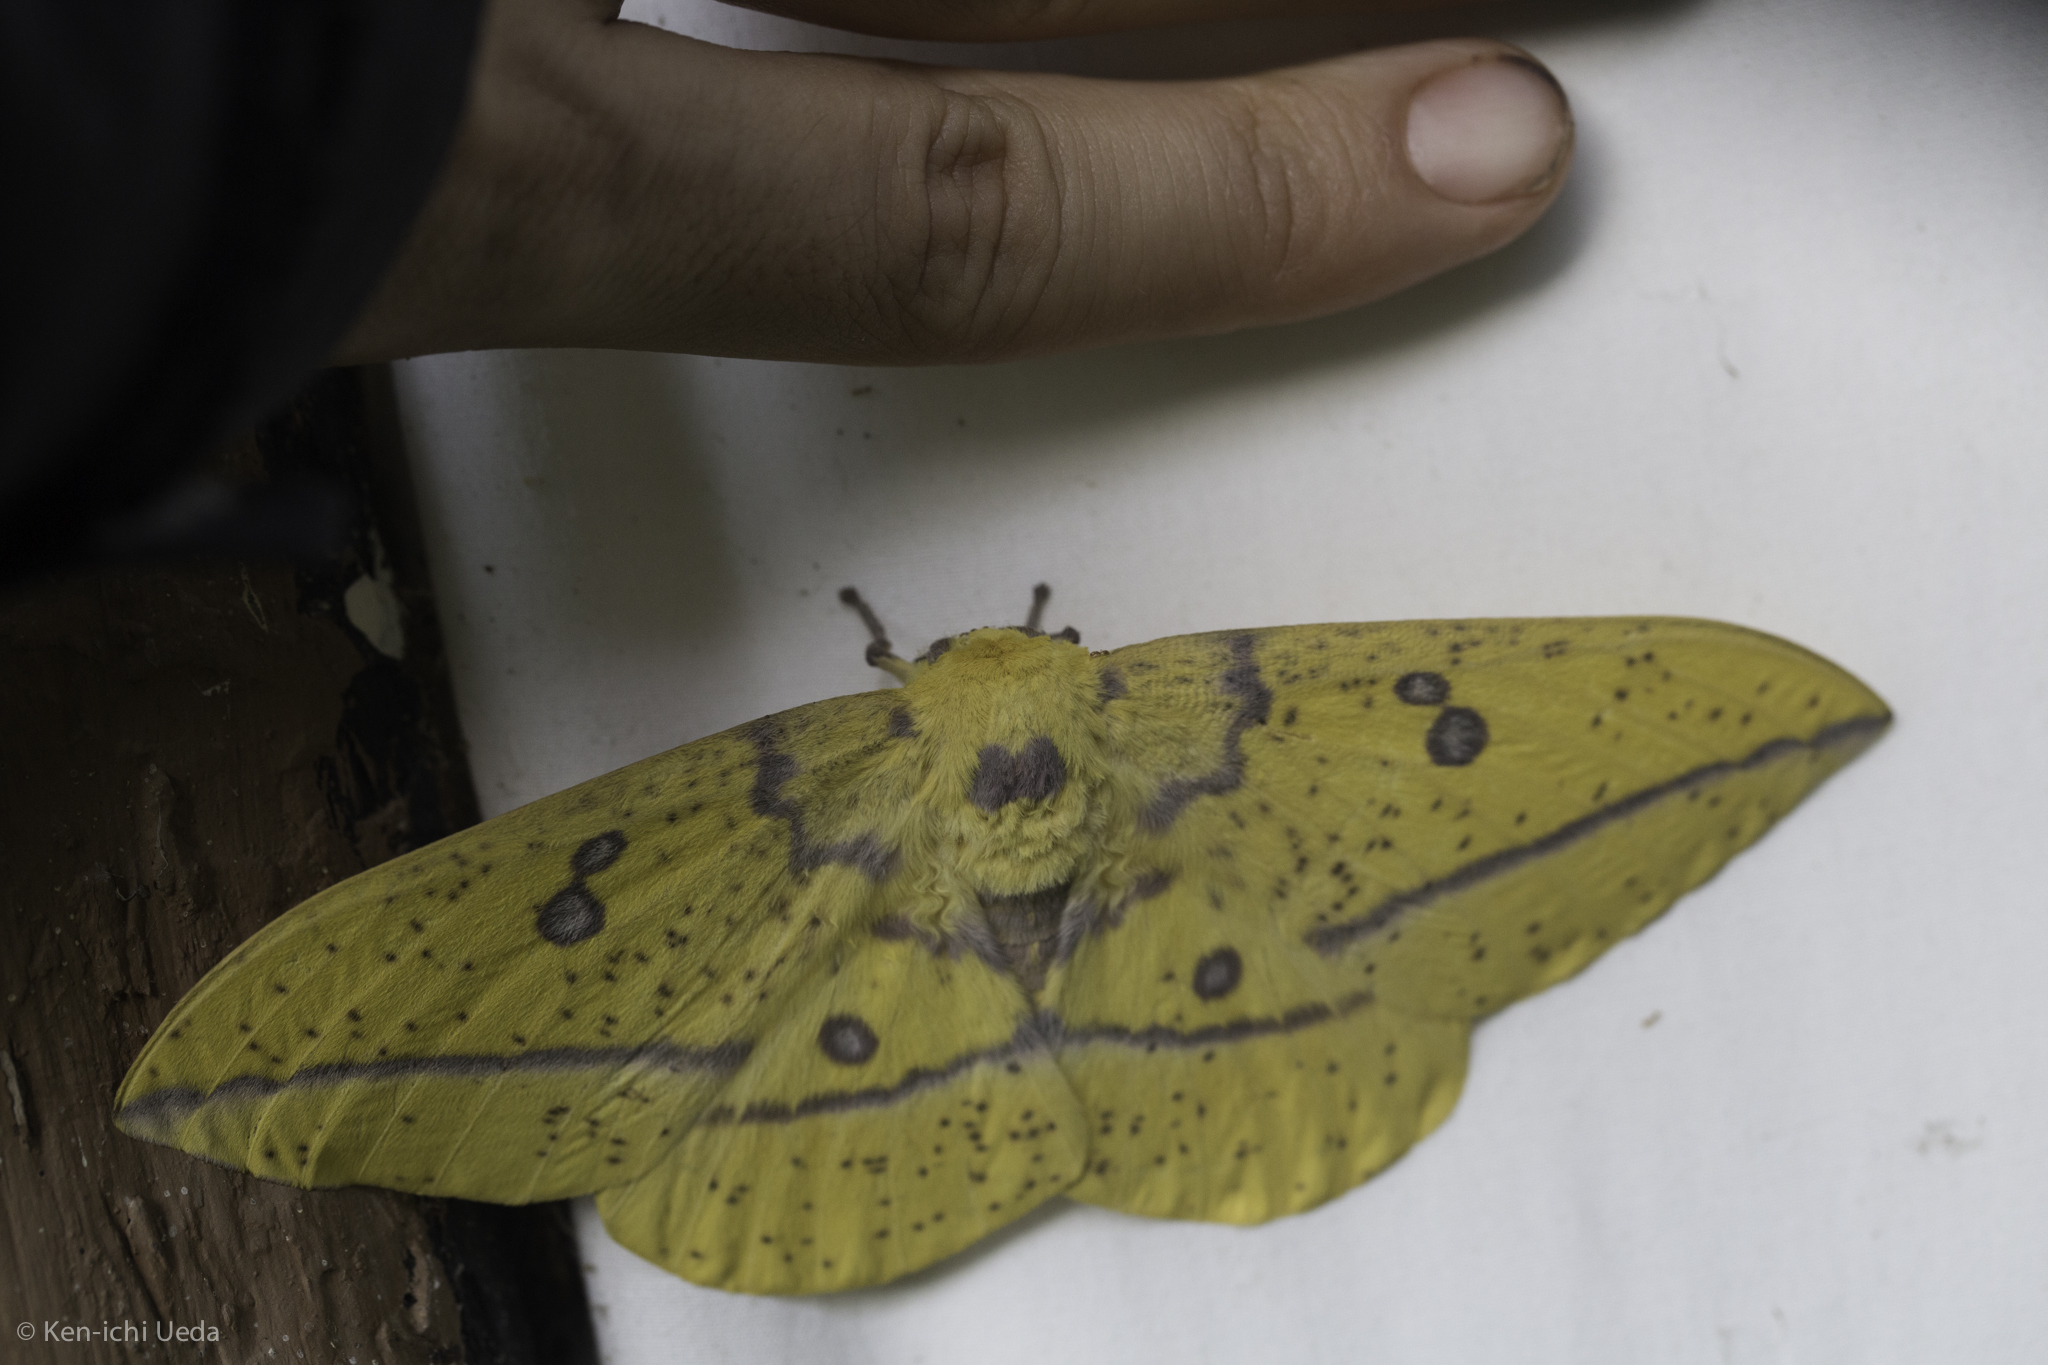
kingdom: Animalia
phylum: Arthropoda
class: Insecta
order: Lepidoptera
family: Saturniidae
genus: Eacles
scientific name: Eacles imperialis
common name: Imperial moth
